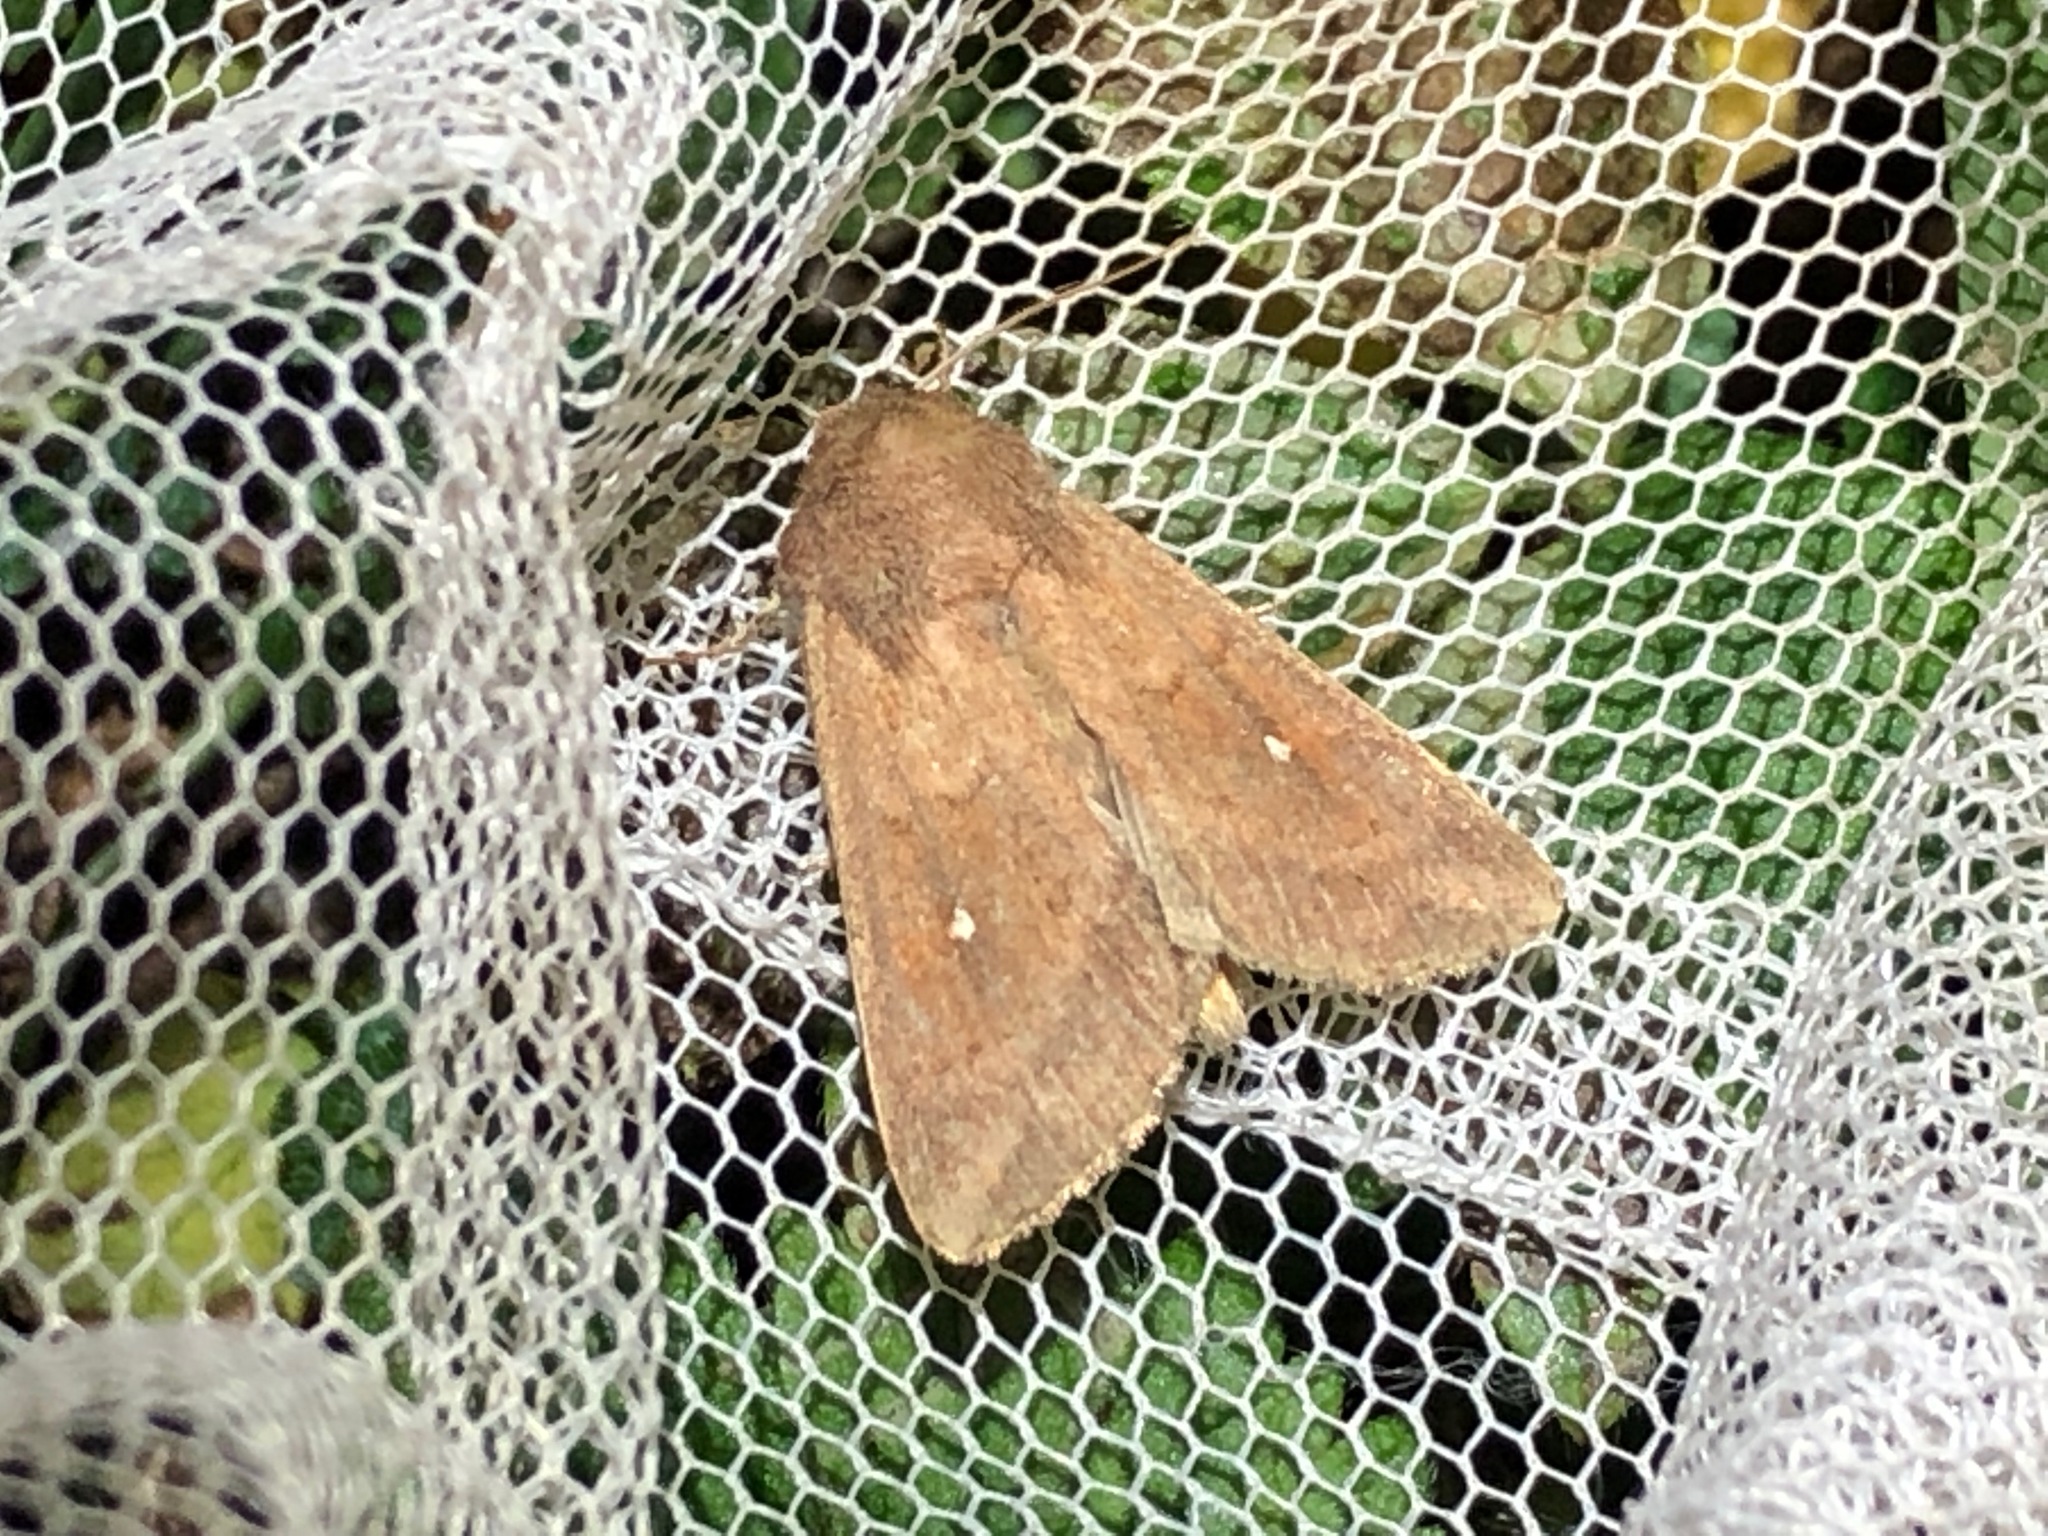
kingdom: Animalia
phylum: Arthropoda
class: Insecta
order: Lepidoptera
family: Noctuidae
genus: Mythimna
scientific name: Mythimna albipuncta
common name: White-point
